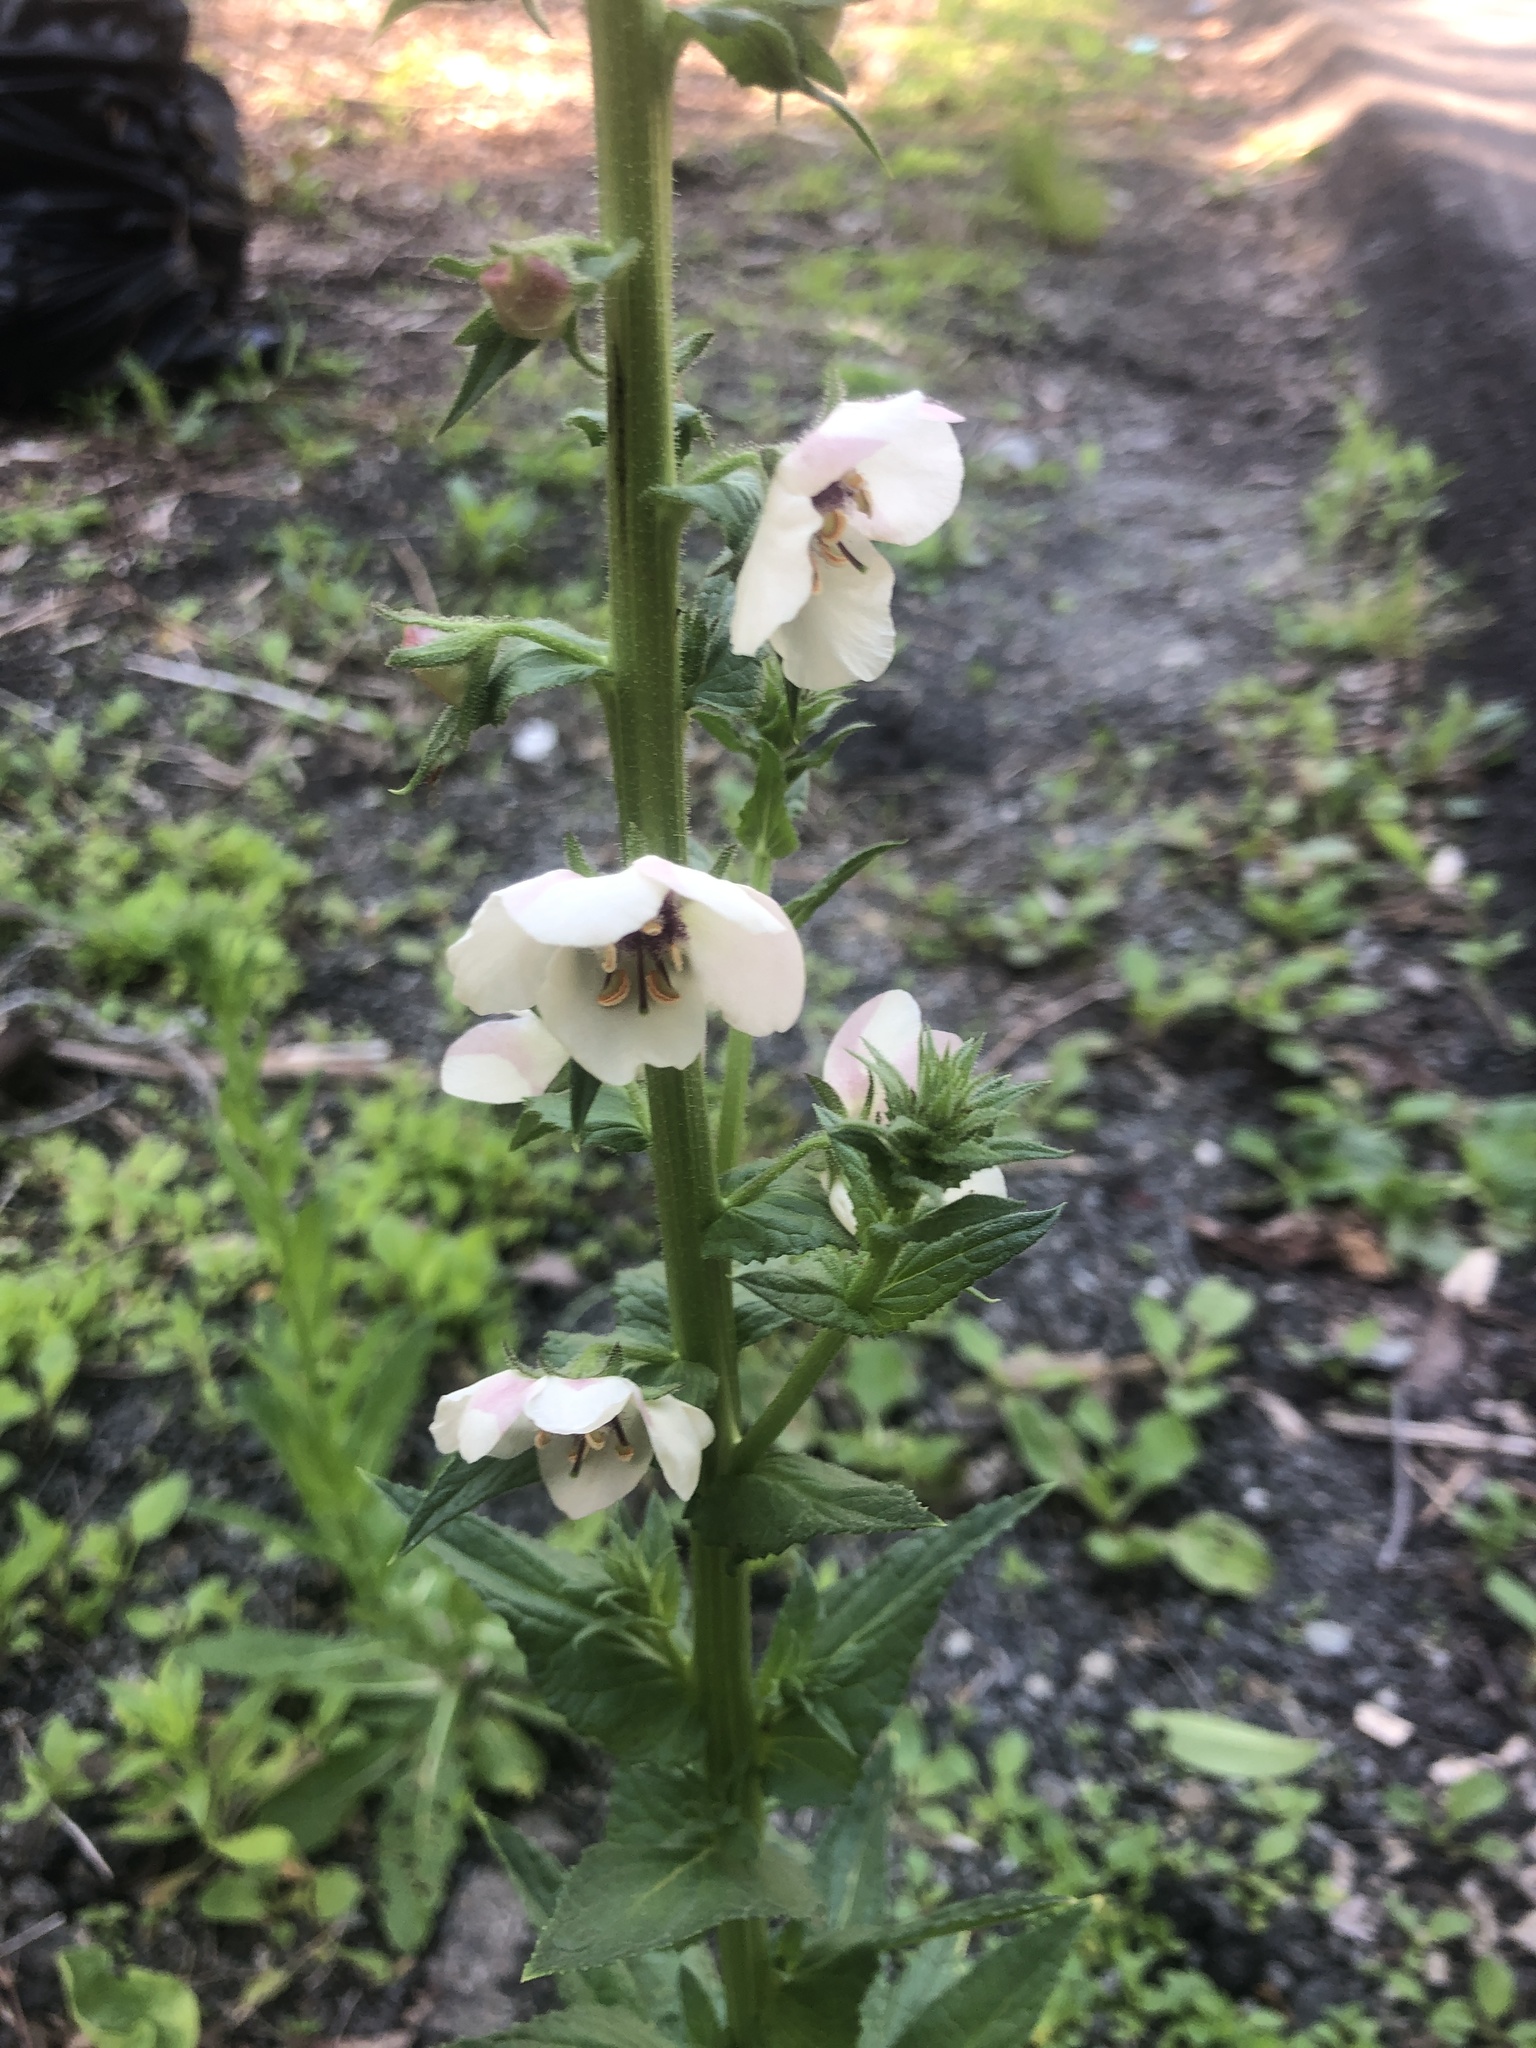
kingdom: Plantae
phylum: Tracheophyta
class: Magnoliopsida
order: Lamiales
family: Scrophulariaceae
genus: Verbascum
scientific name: Verbascum blattaria
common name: Moth mullein
